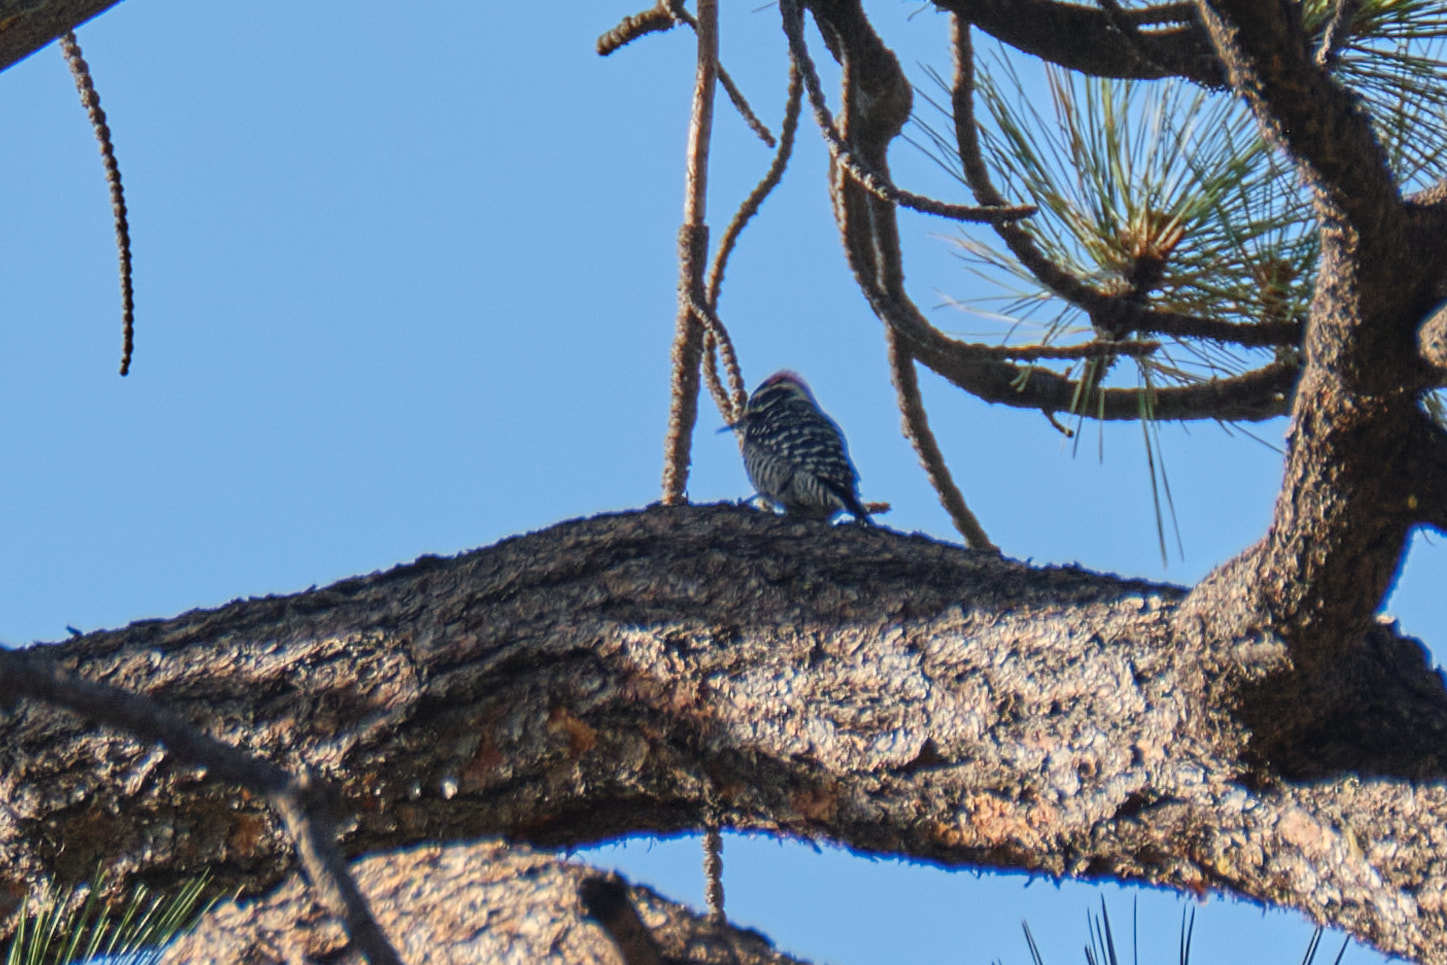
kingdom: Animalia
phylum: Chordata
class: Aves
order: Piciformes
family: Picidae
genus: Dryobates
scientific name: Dryobates nuttallii
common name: Nuttall's woodpecker
